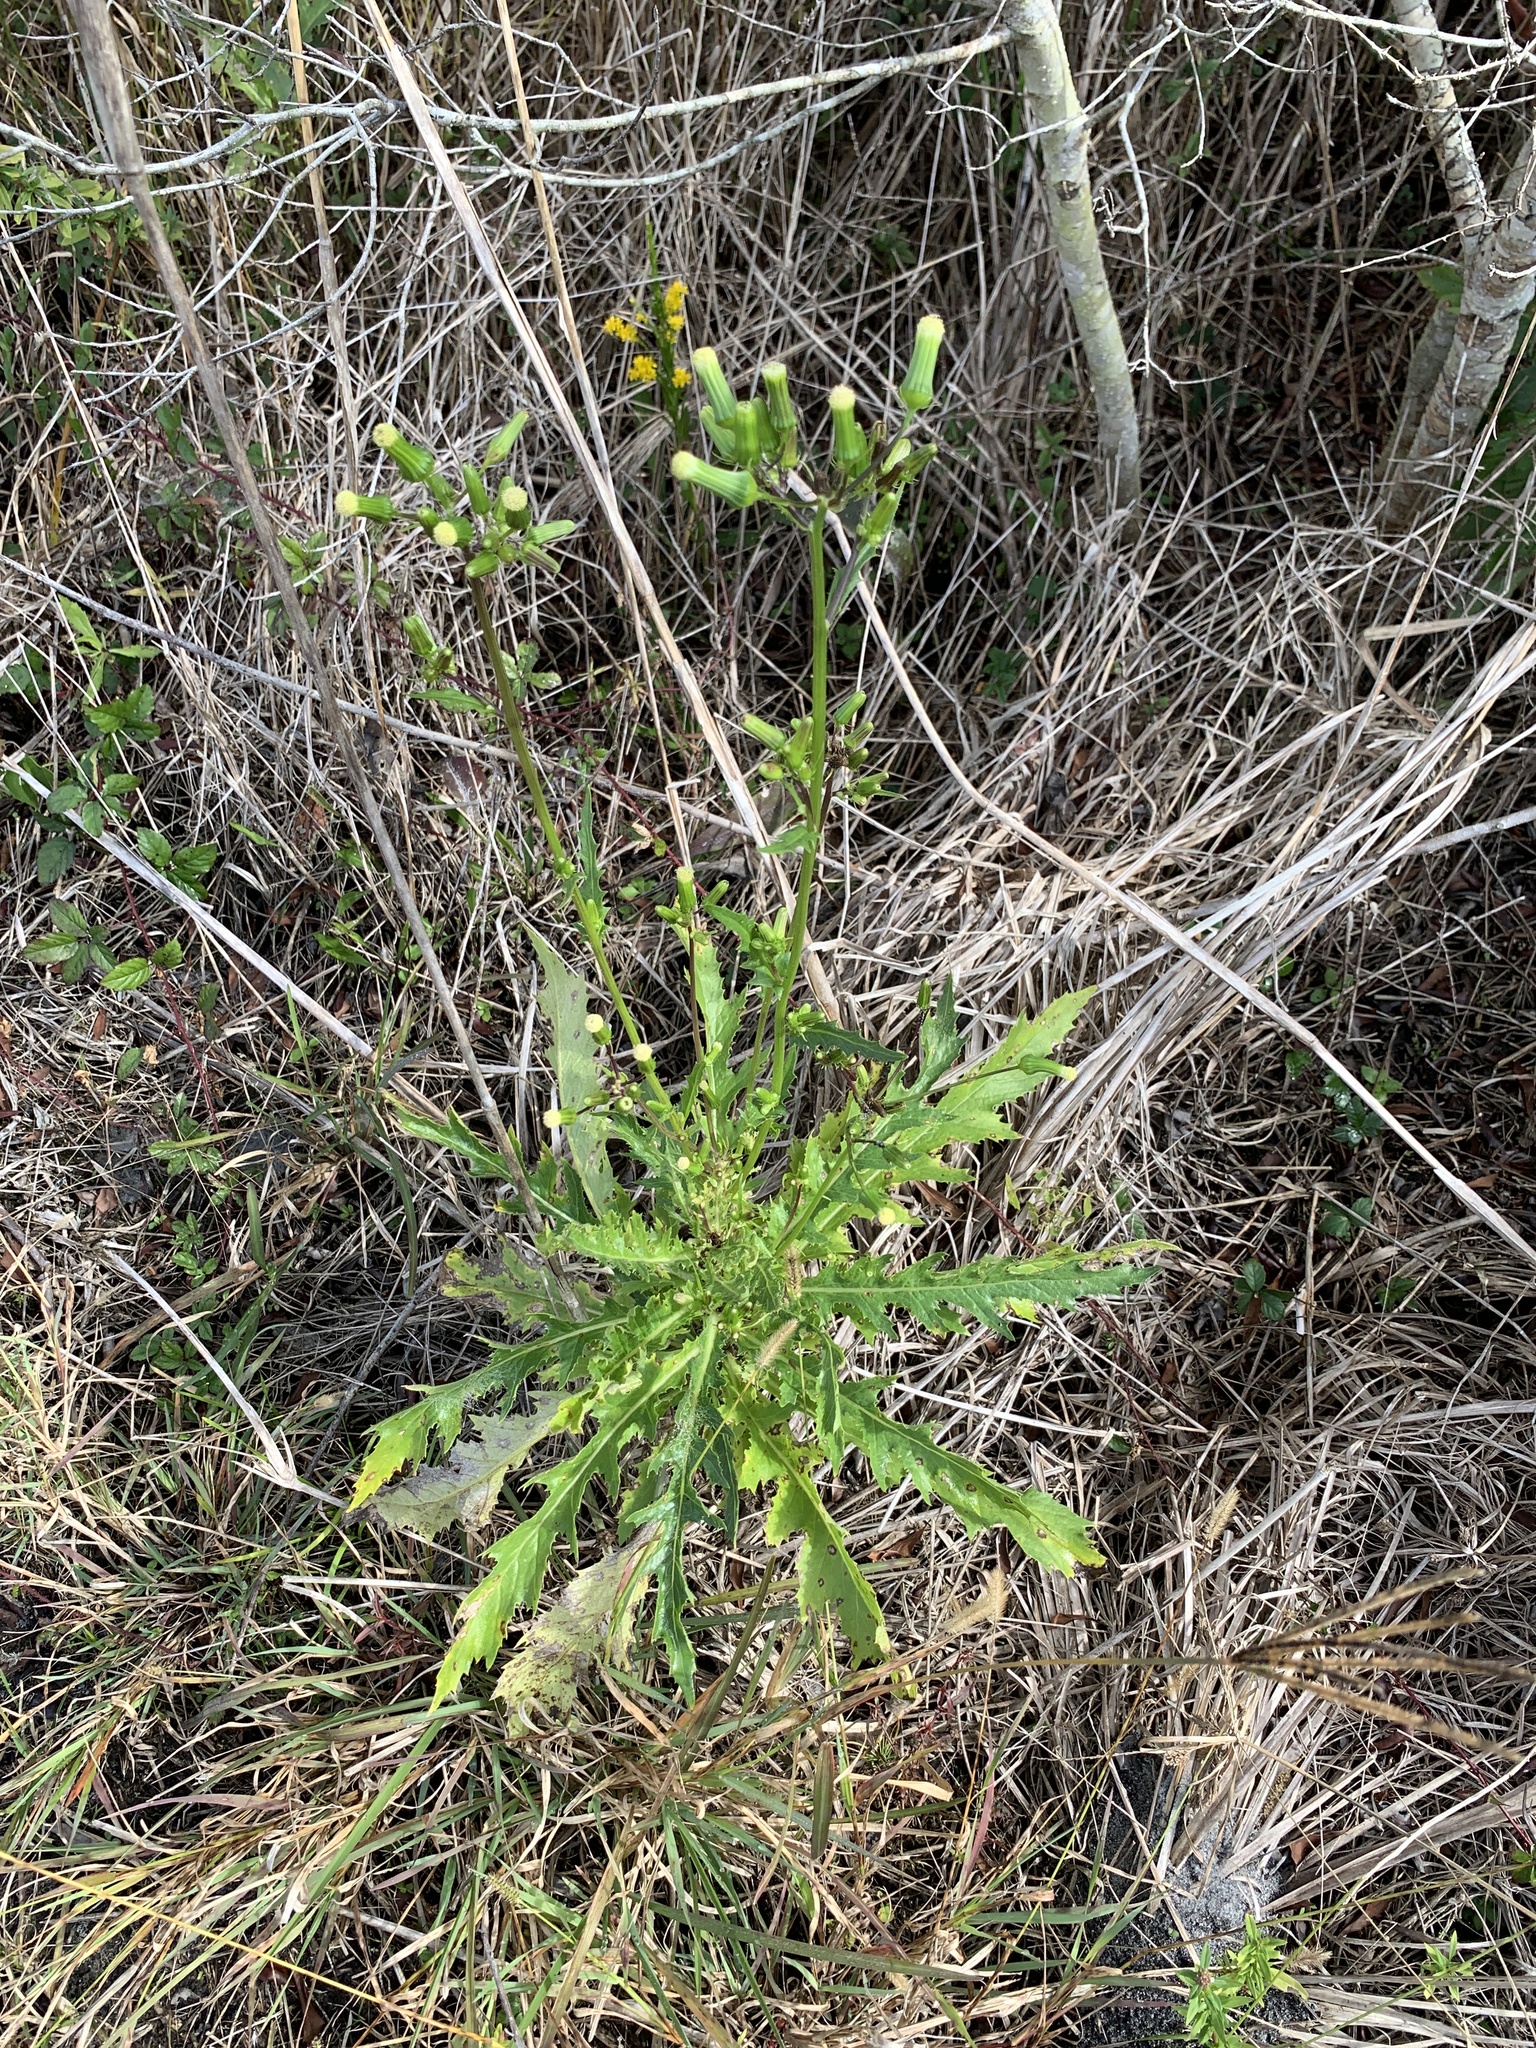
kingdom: Plantae
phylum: Tracheophyta
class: Magnoliopsida
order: Asterales
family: Asteraceae
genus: Erechtites
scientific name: Erechtites hieraciifolius
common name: American burnweed
